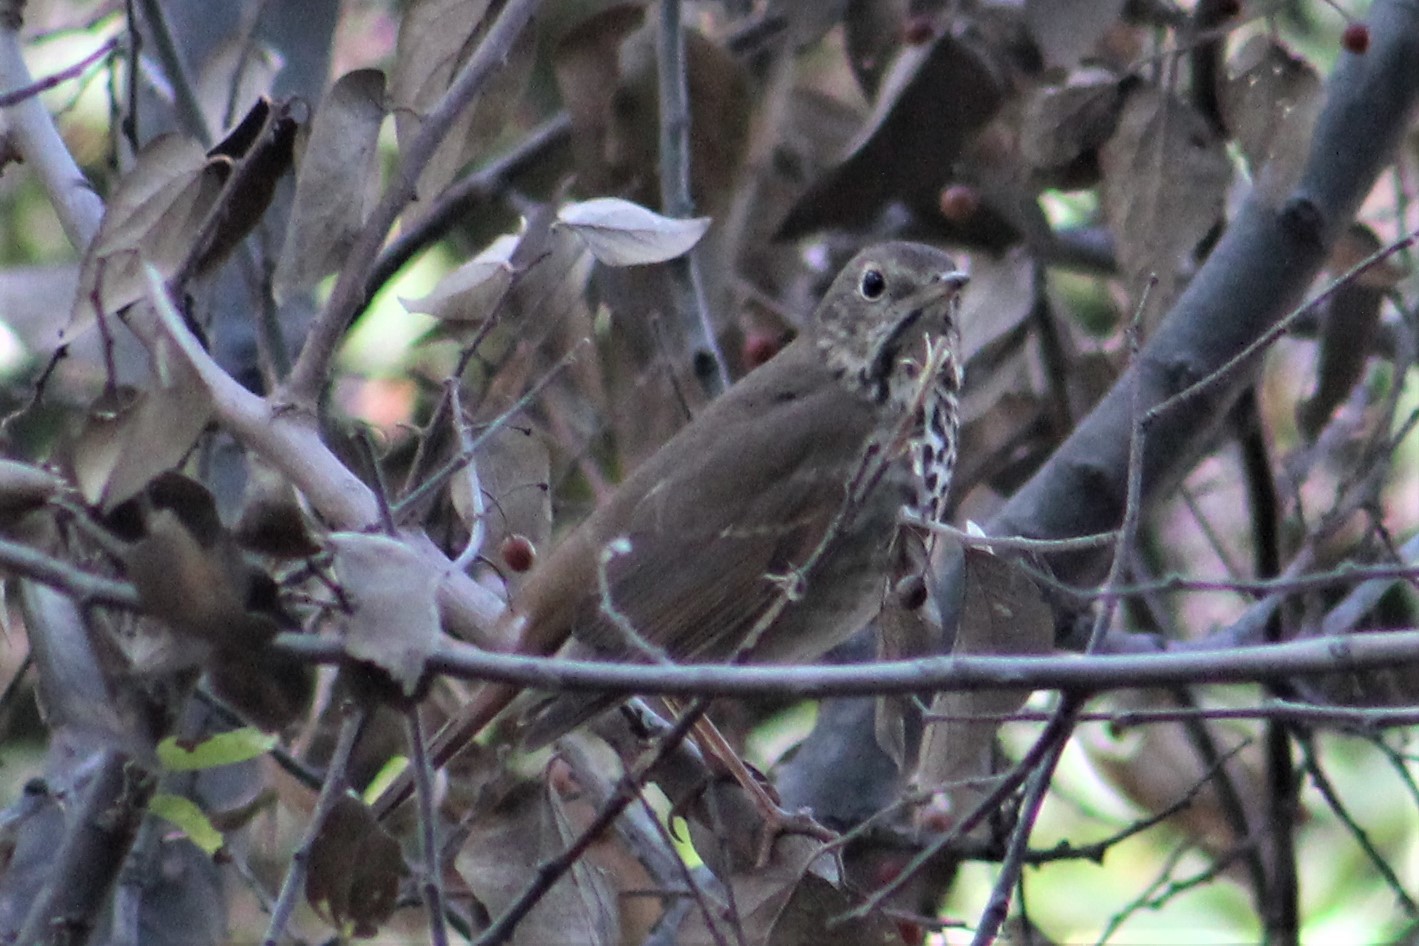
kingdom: Animalia
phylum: Chordata
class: Aves
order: Passeriformes
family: Turdidae
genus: Catharus
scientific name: Catharus guttatus
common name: Hermit thrush
